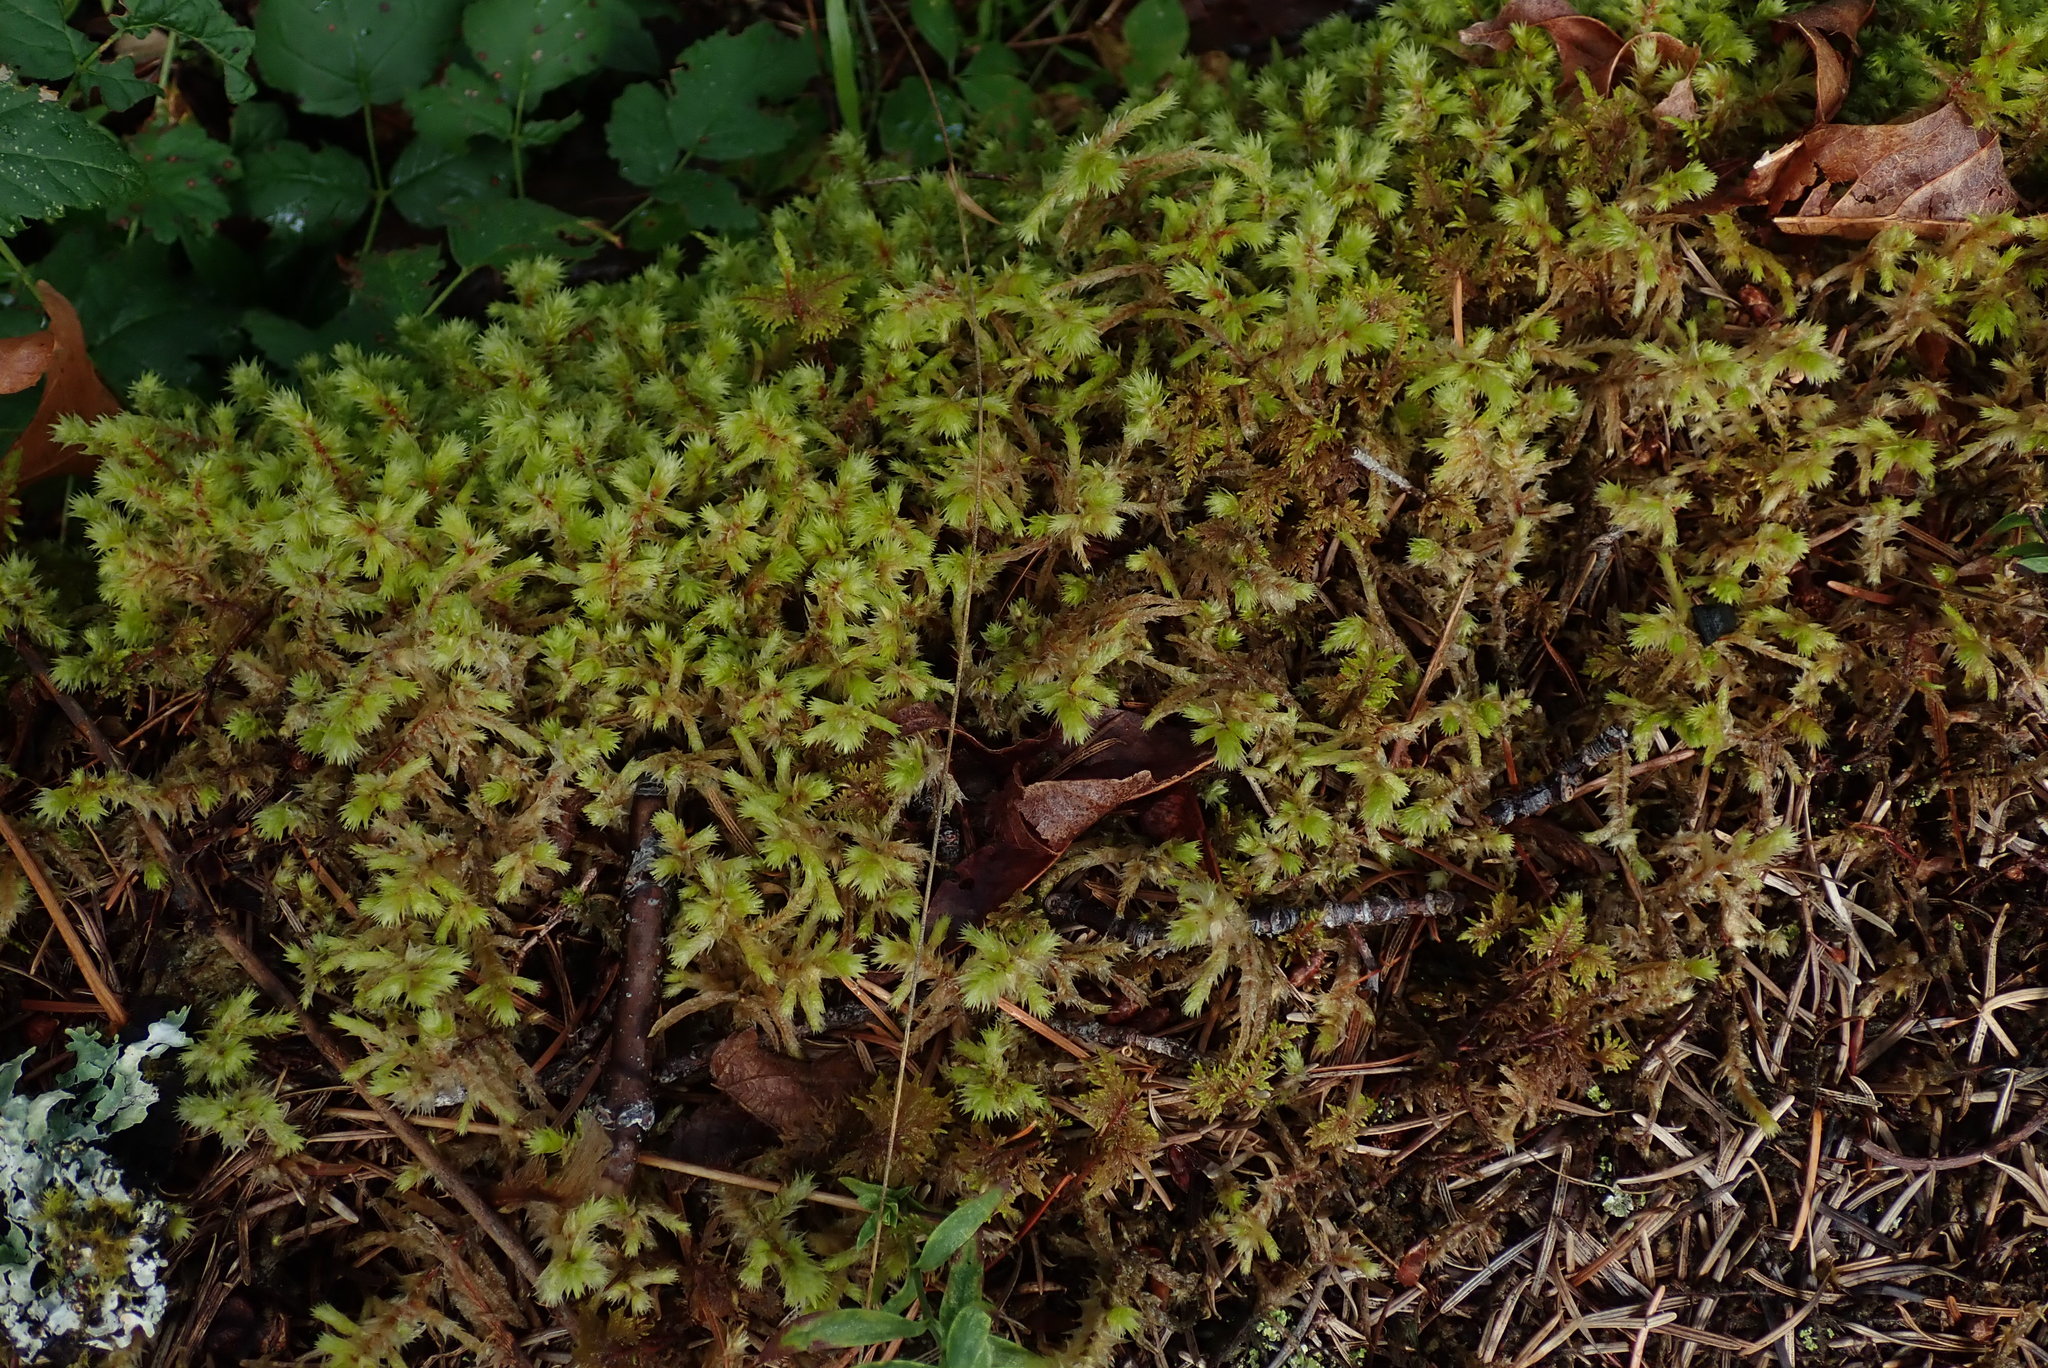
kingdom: Plantae
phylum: Bryophyta
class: Bryopsida
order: Hypnales
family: Hylocomiaceae
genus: Hylocomiadelphus
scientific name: Hylocomiadelphus triquetrus
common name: Rough goose neck moss
